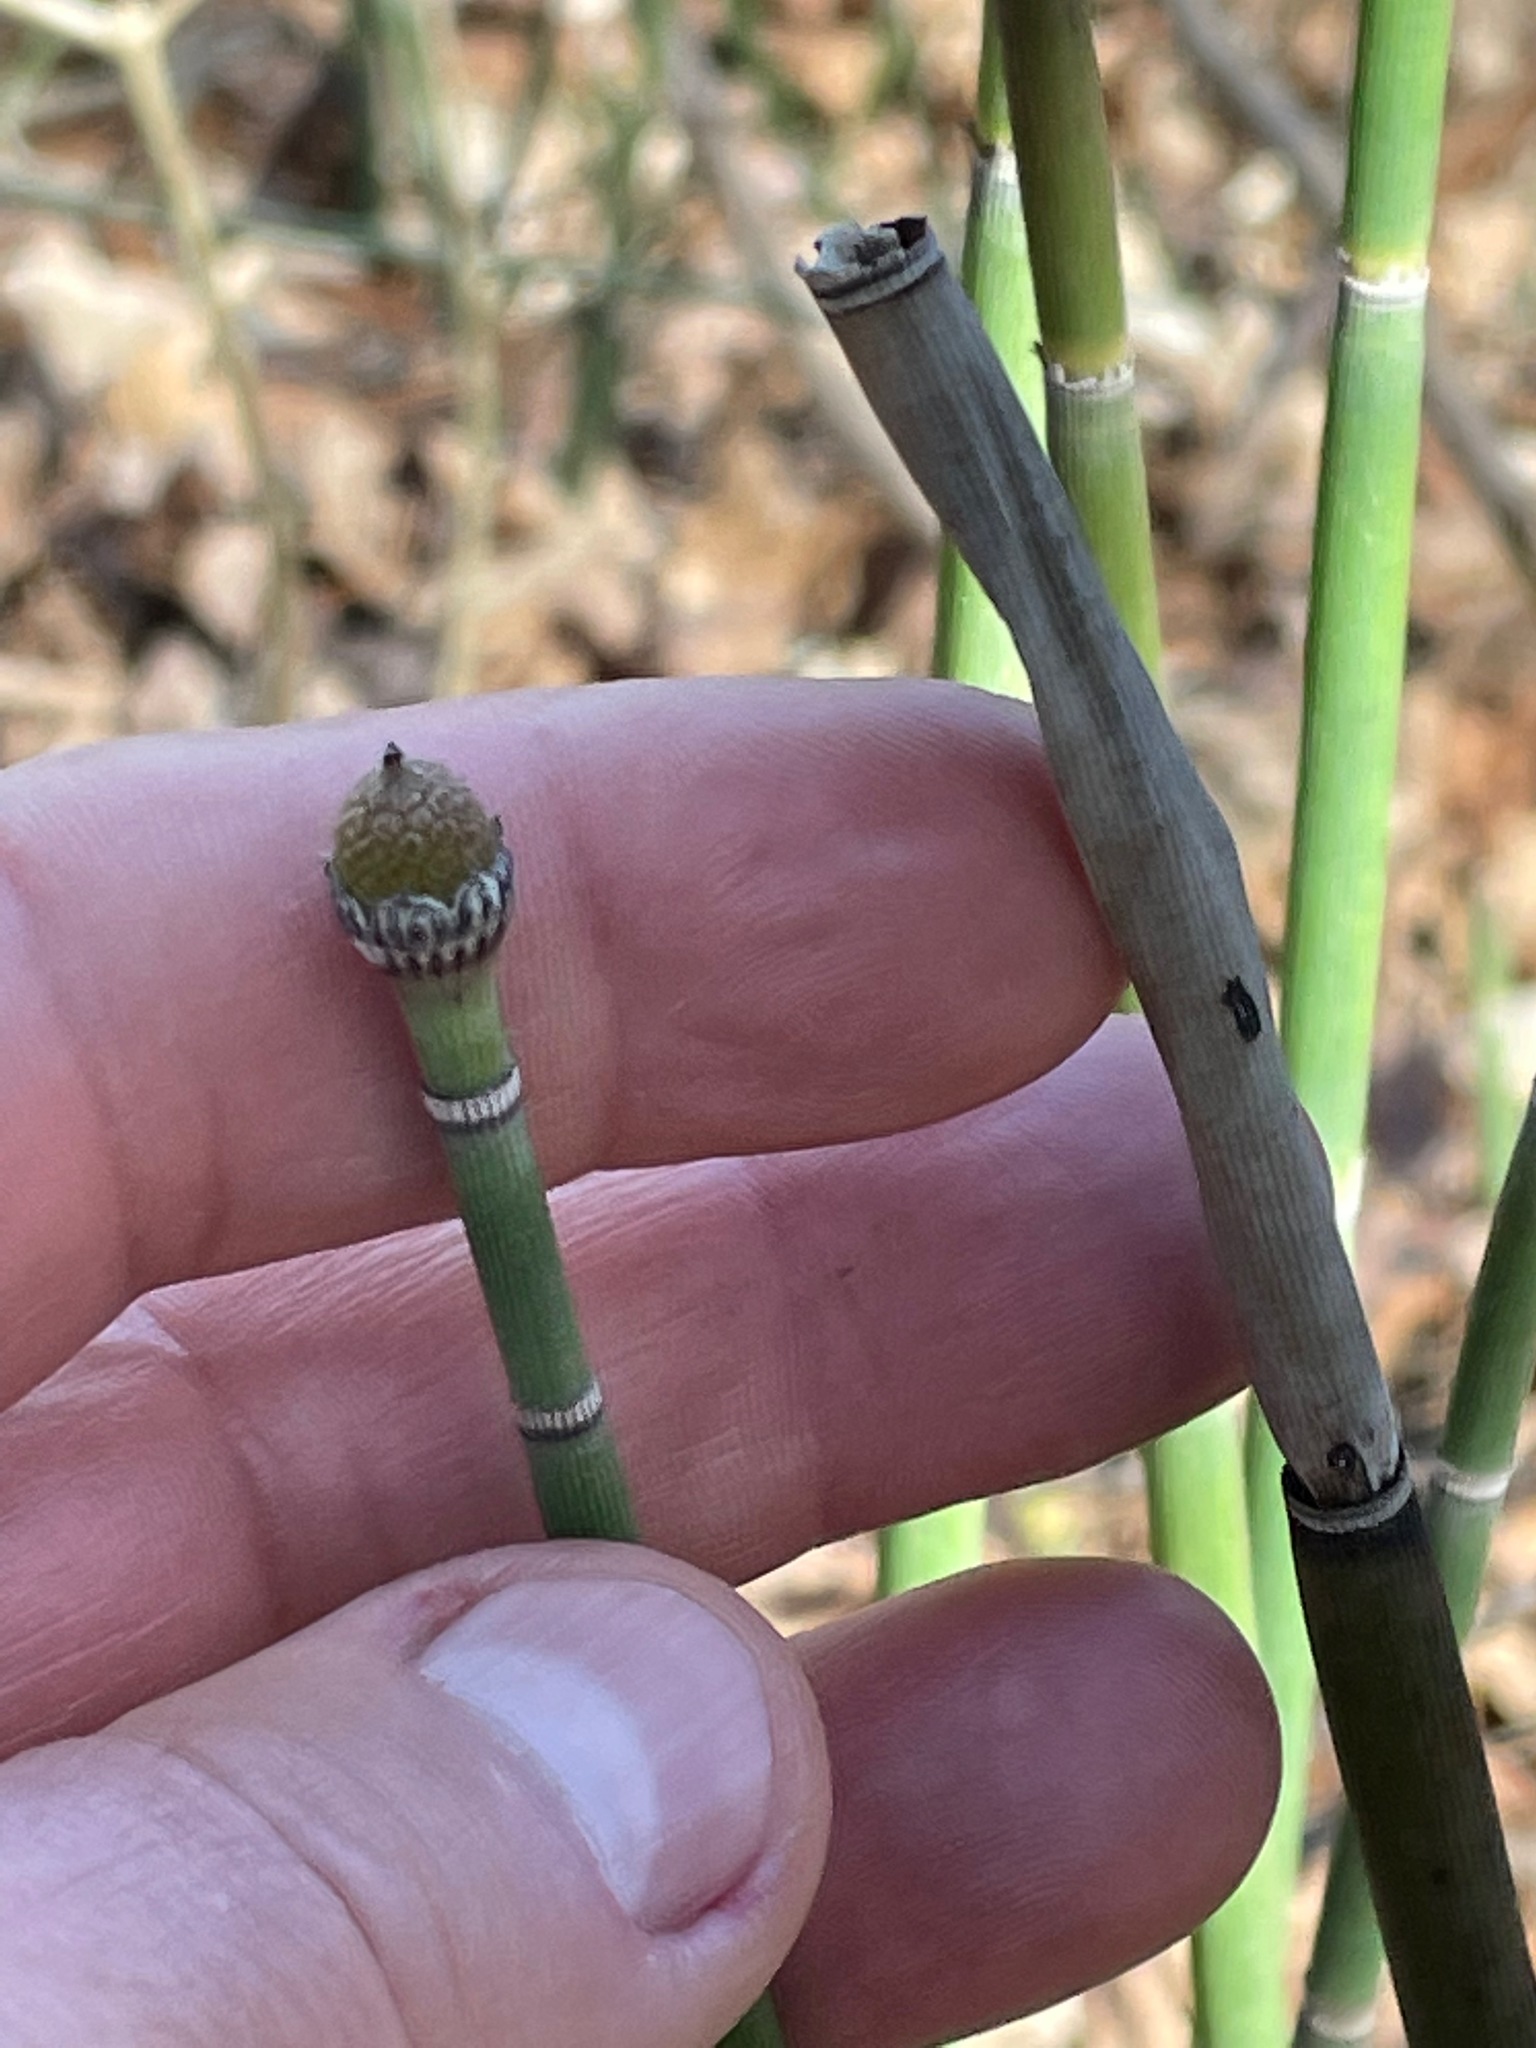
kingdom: Plantae
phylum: Tracheophyta
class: Polypodiopsida
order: Equisetales
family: Equisetaceae
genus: Equisetum
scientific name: Equisetum hyemale
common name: Rough horsetail
